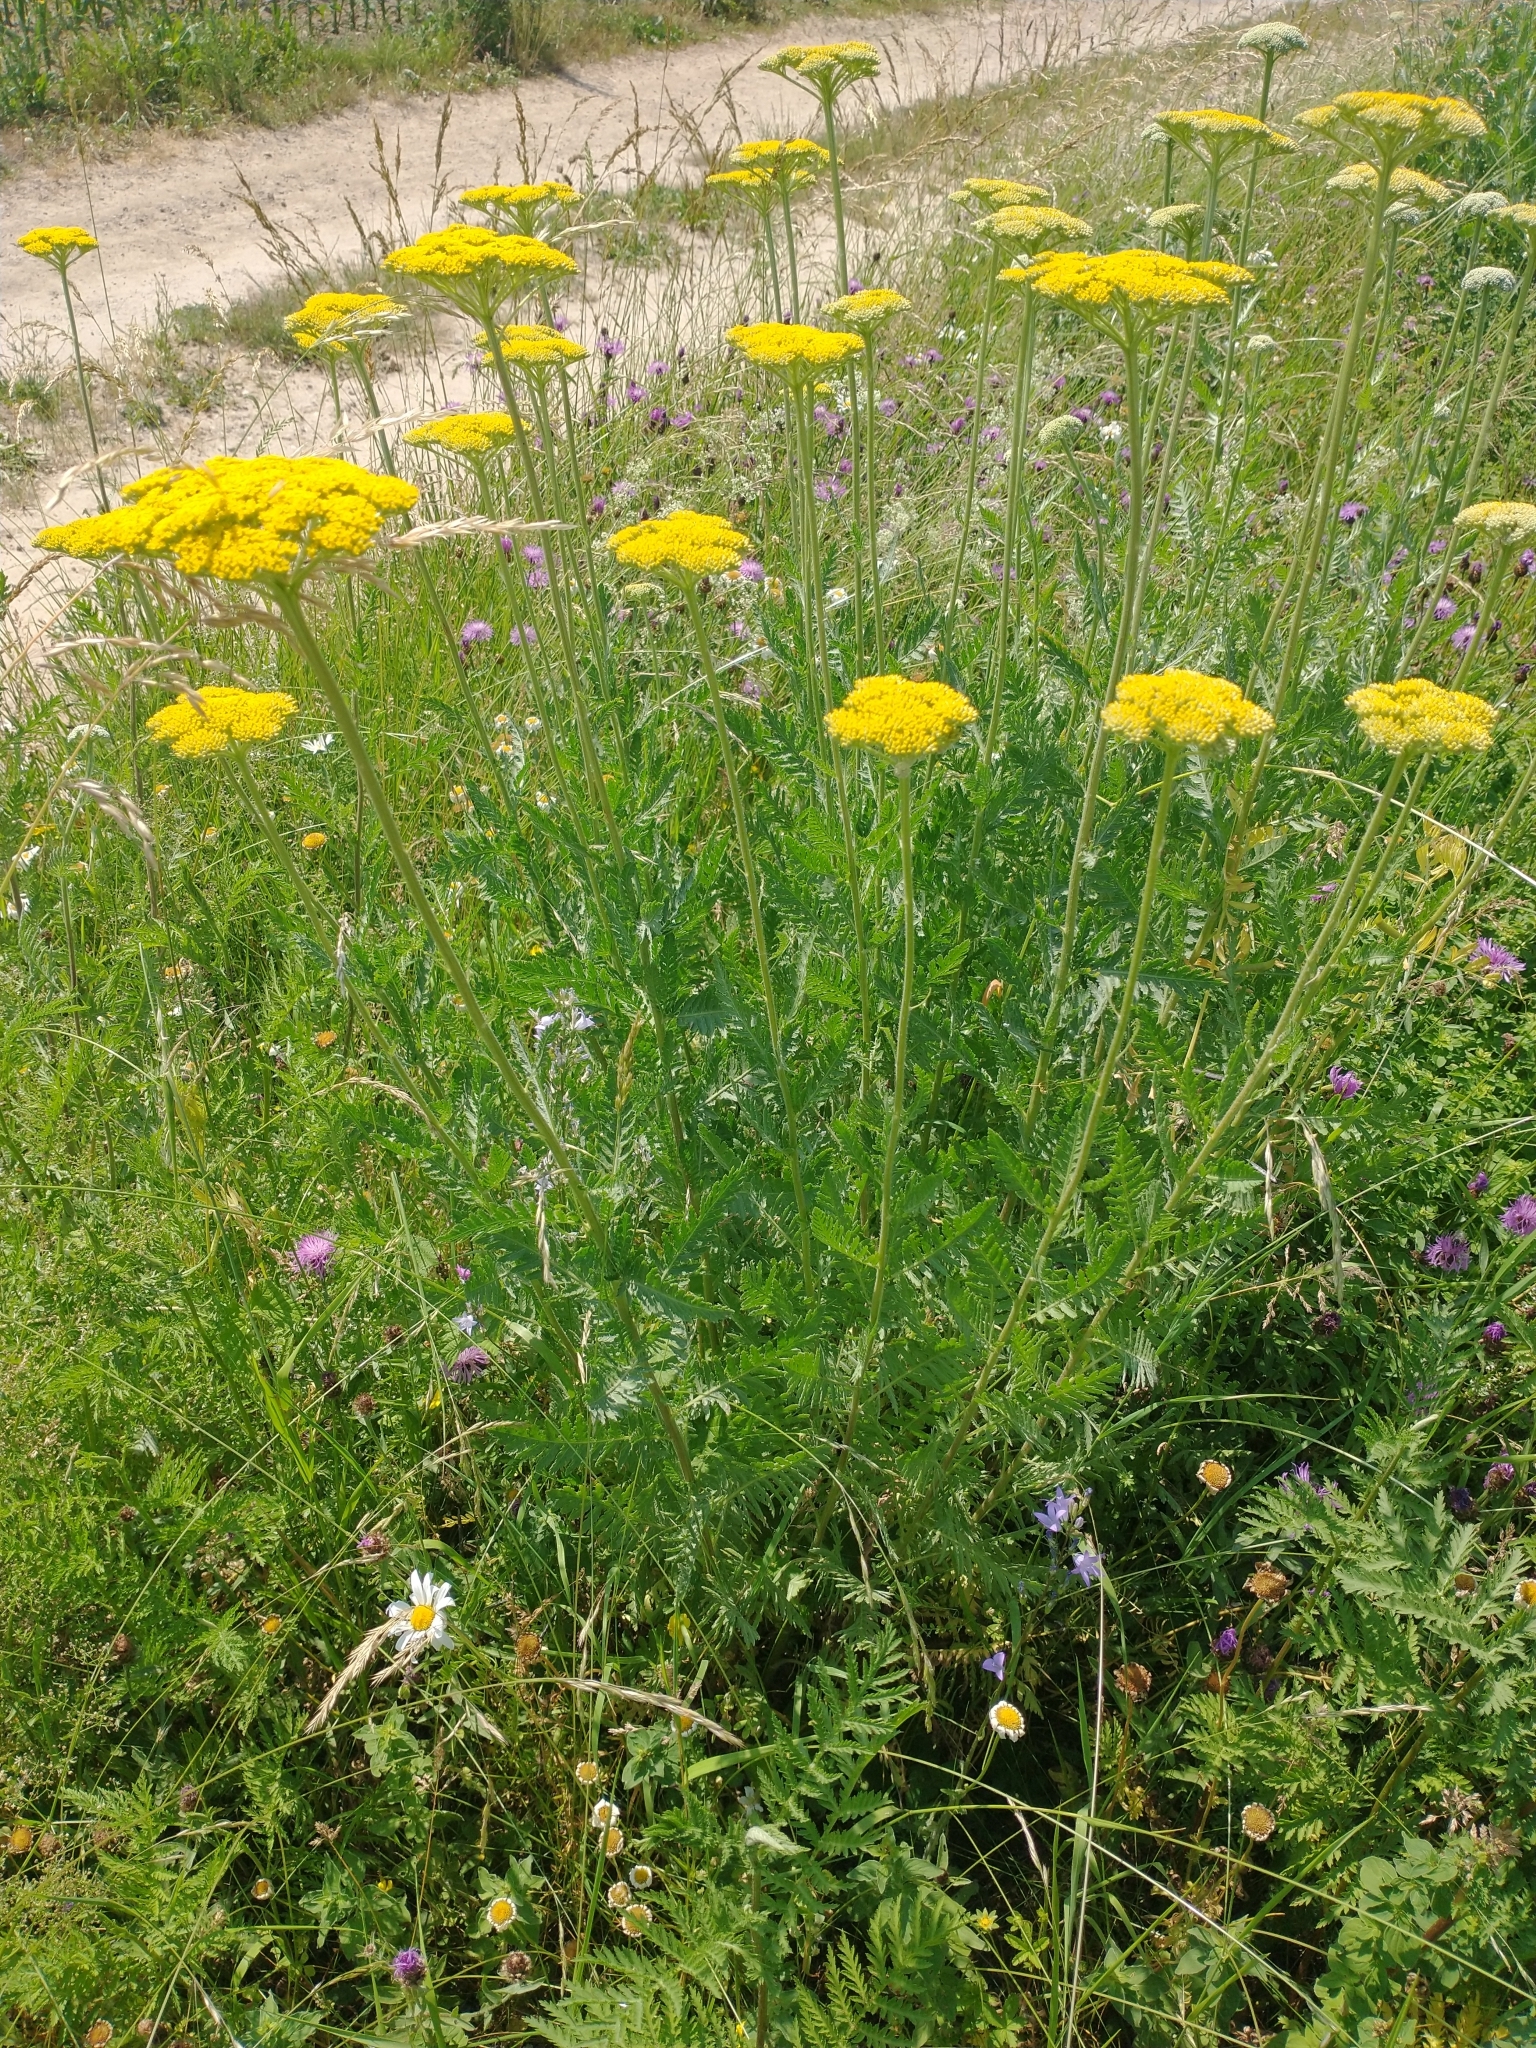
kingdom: Plantae
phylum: Tracheophyta
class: Magnoliopsida
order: Asterales
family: Asteraceae
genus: Achillea
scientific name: Achillea filipendulina
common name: Fernleaf yarrow
